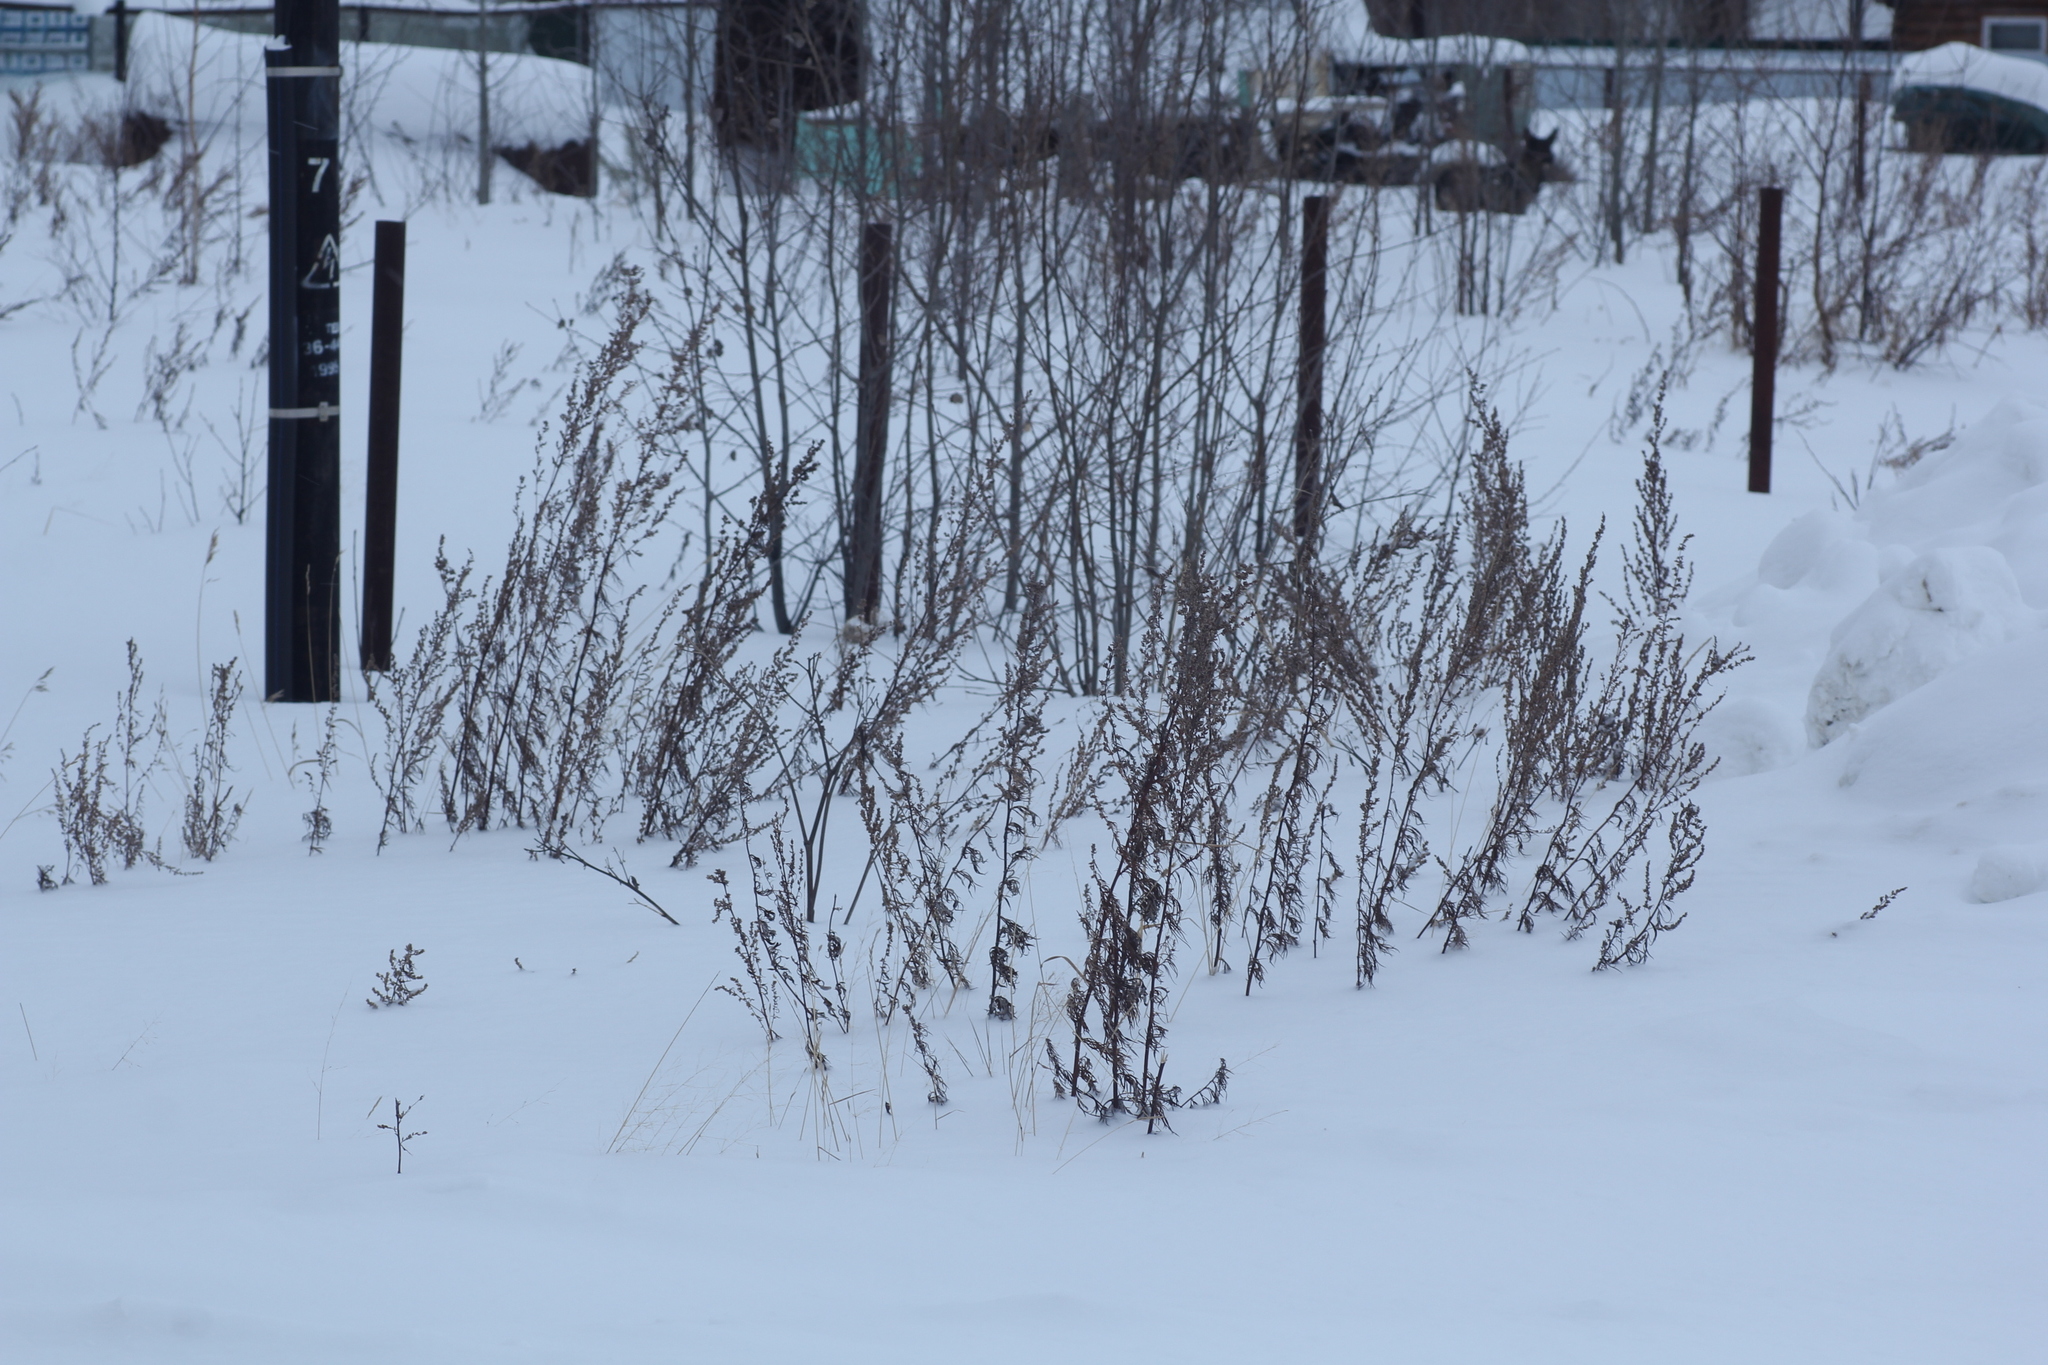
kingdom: Plantae
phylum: Tracheophyta
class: Magnoliopsida
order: Asterales
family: Asteraceae
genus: Artemisia
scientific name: Artemisia vulgaris
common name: Mugwort
